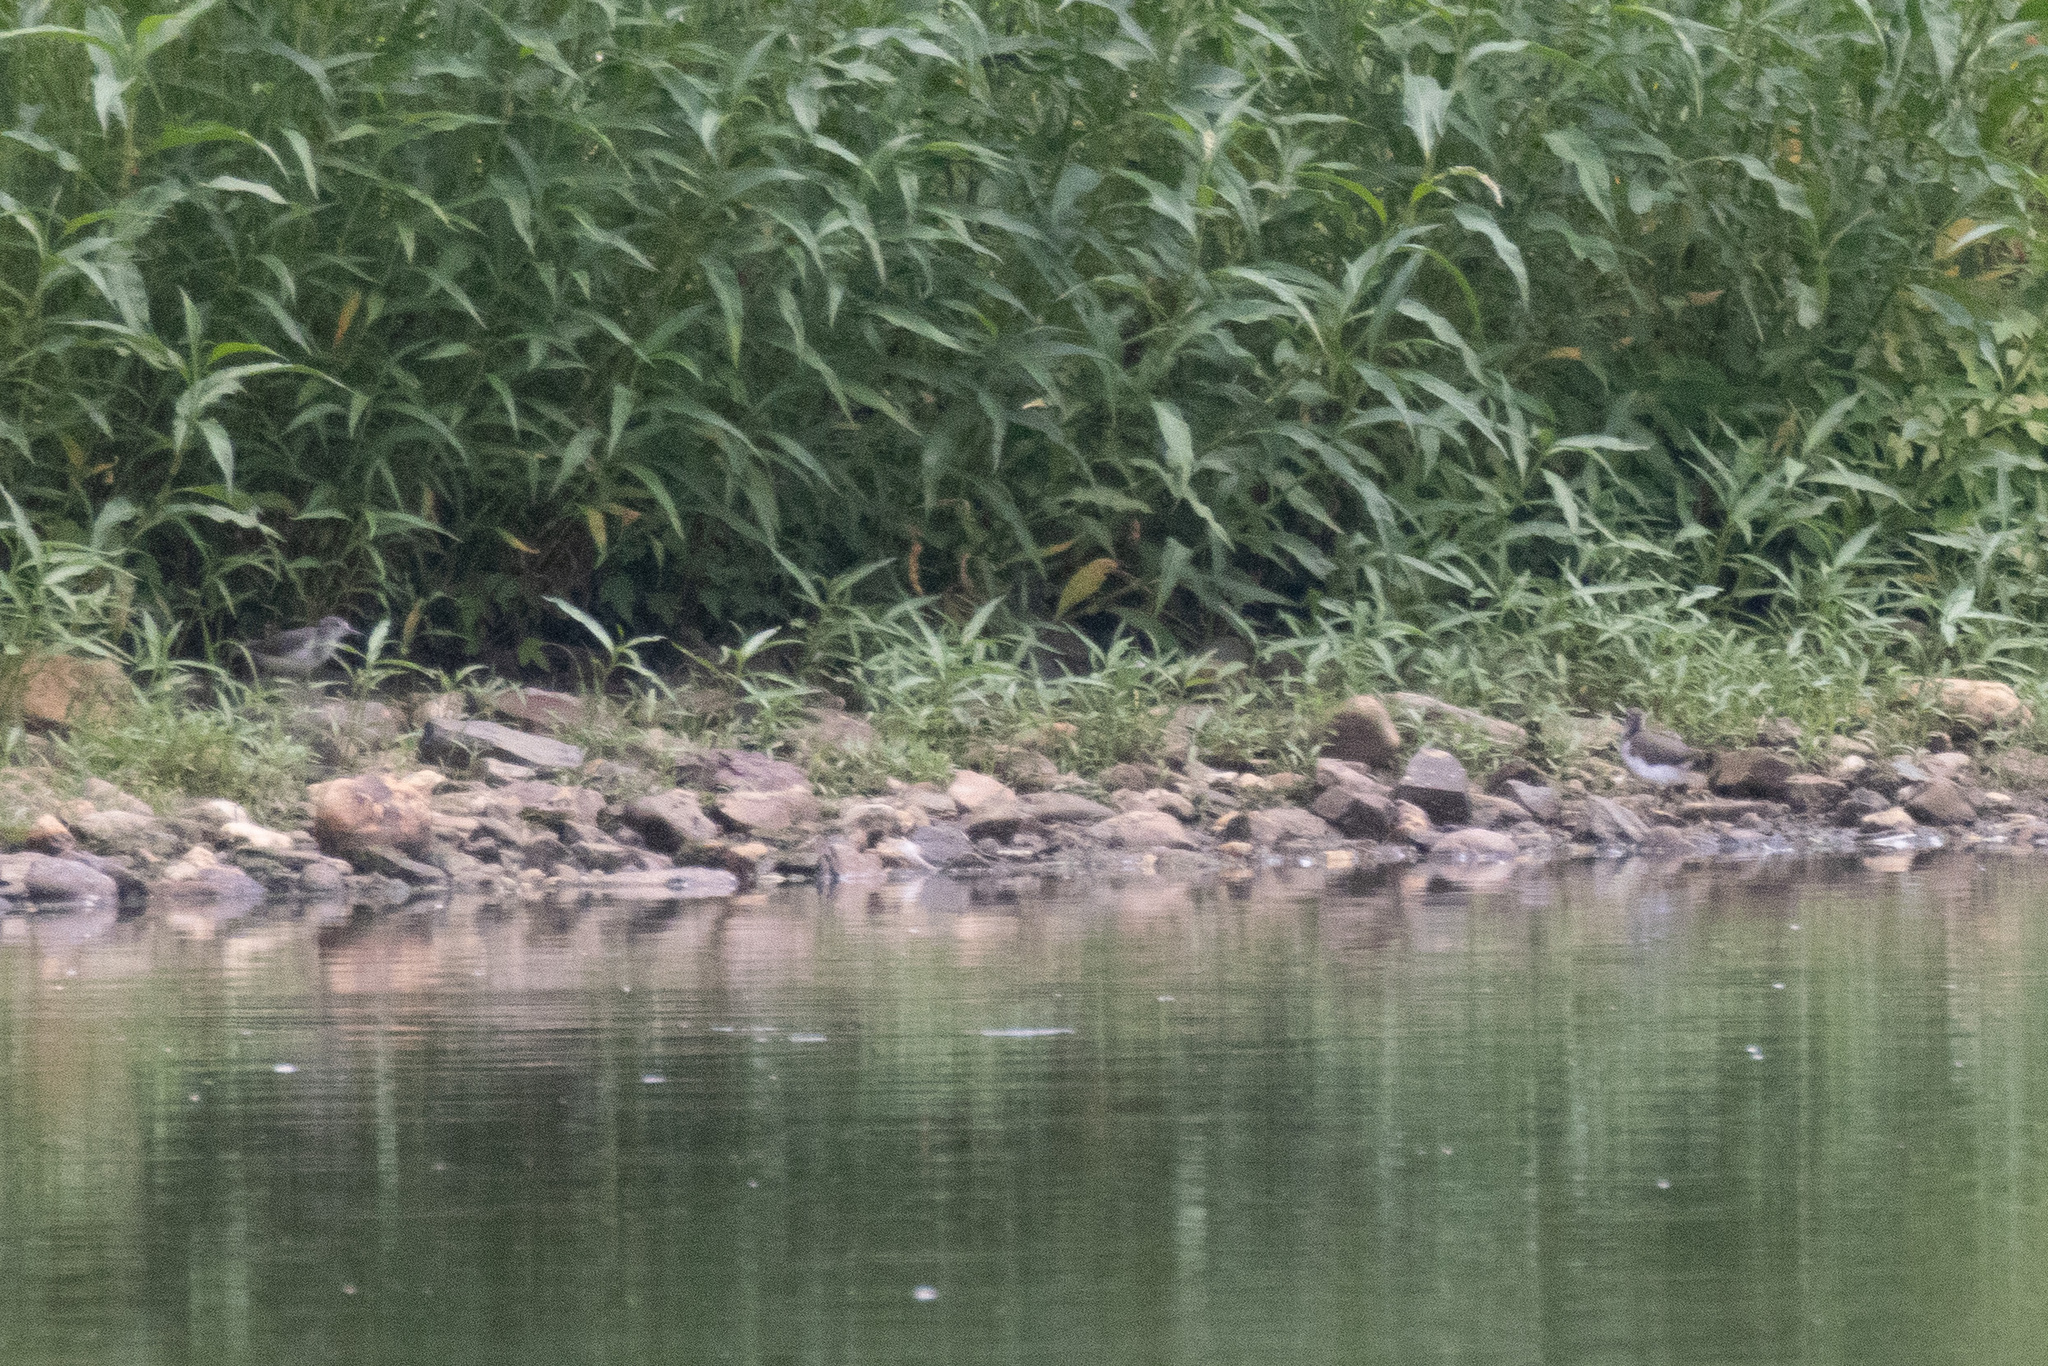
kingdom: Animalia
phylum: Chordata
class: Aves
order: Charadriiformes
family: Scolopacidae
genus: Actitis
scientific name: Actitis macularius
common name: Spotted sandpiper
